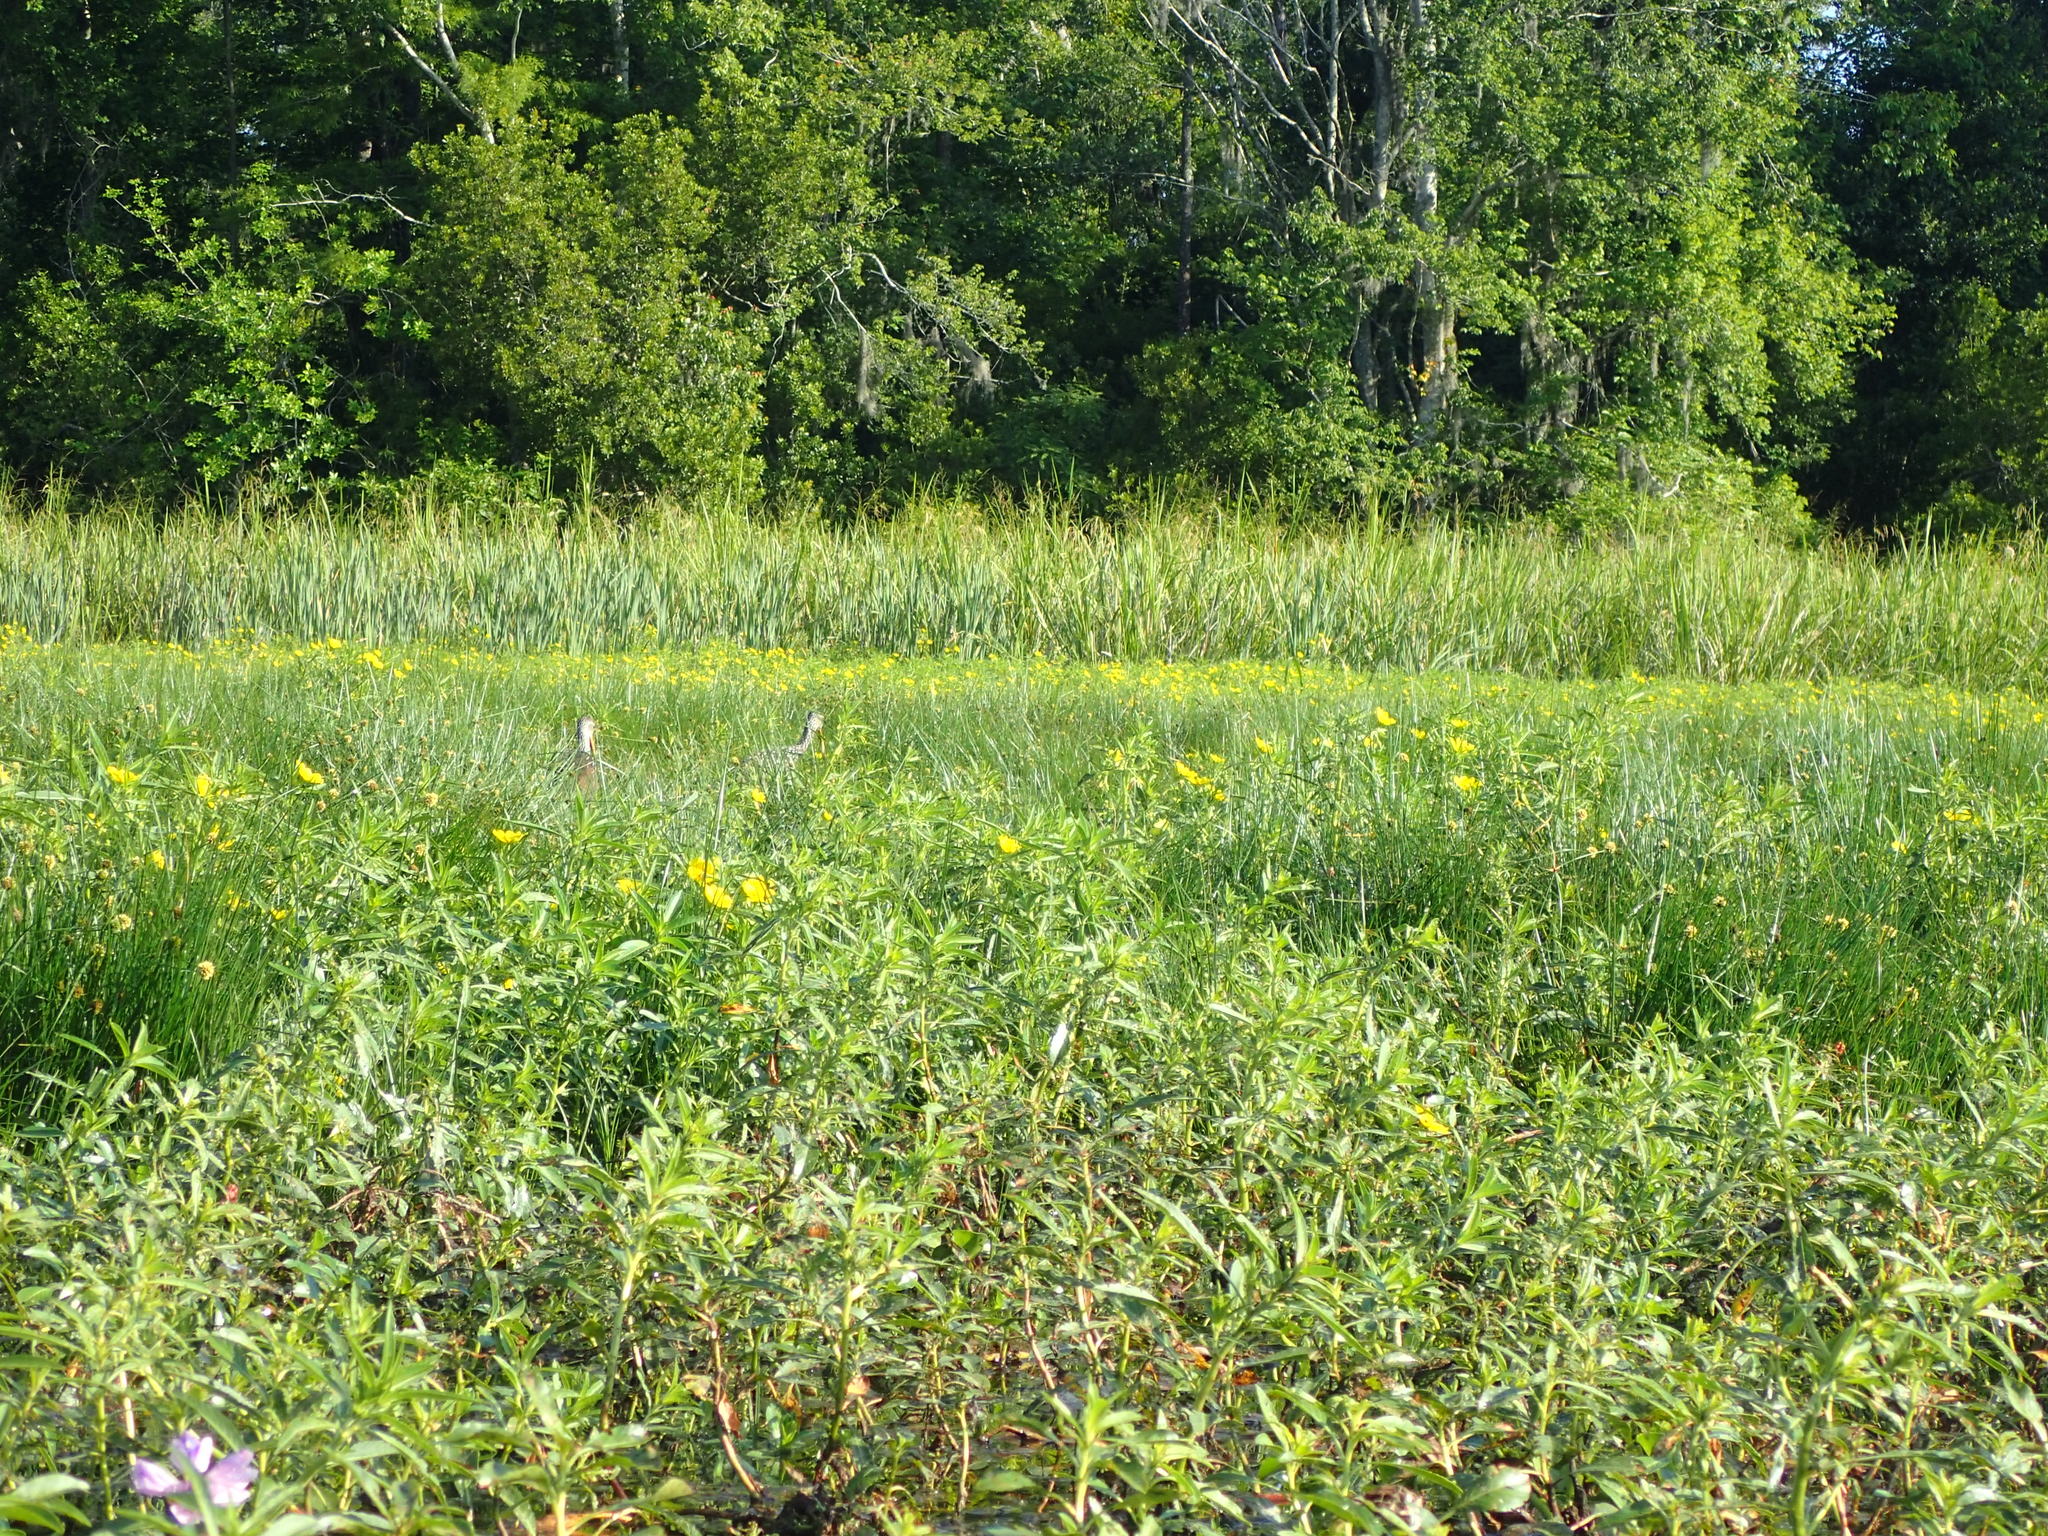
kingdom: Animalia
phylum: Chordata
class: Aves
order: Gruiformes
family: Aramidae
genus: Aramus
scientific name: Aramus guarauna
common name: Limpkin
